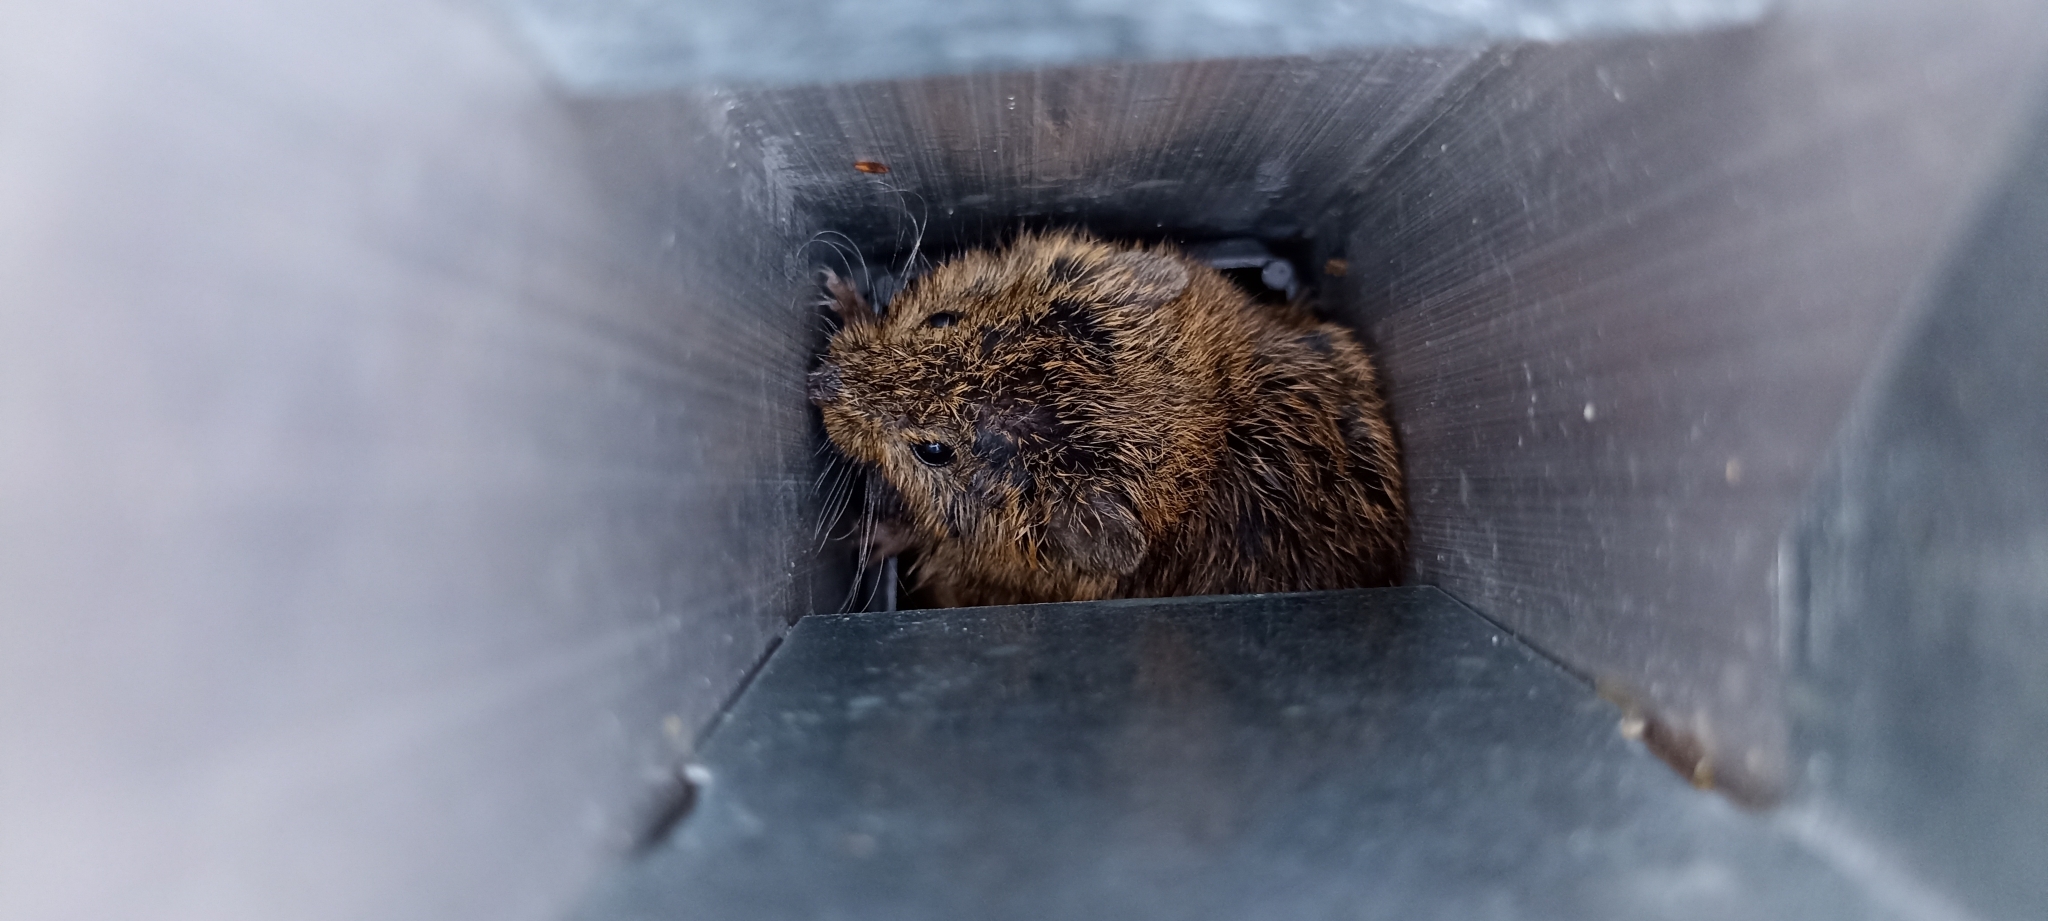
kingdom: Animalia
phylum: Chordata
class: Mammalia
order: Rodentia
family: Cricetidae
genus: Myodes
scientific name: Myodes glareolus
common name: Bank vole
